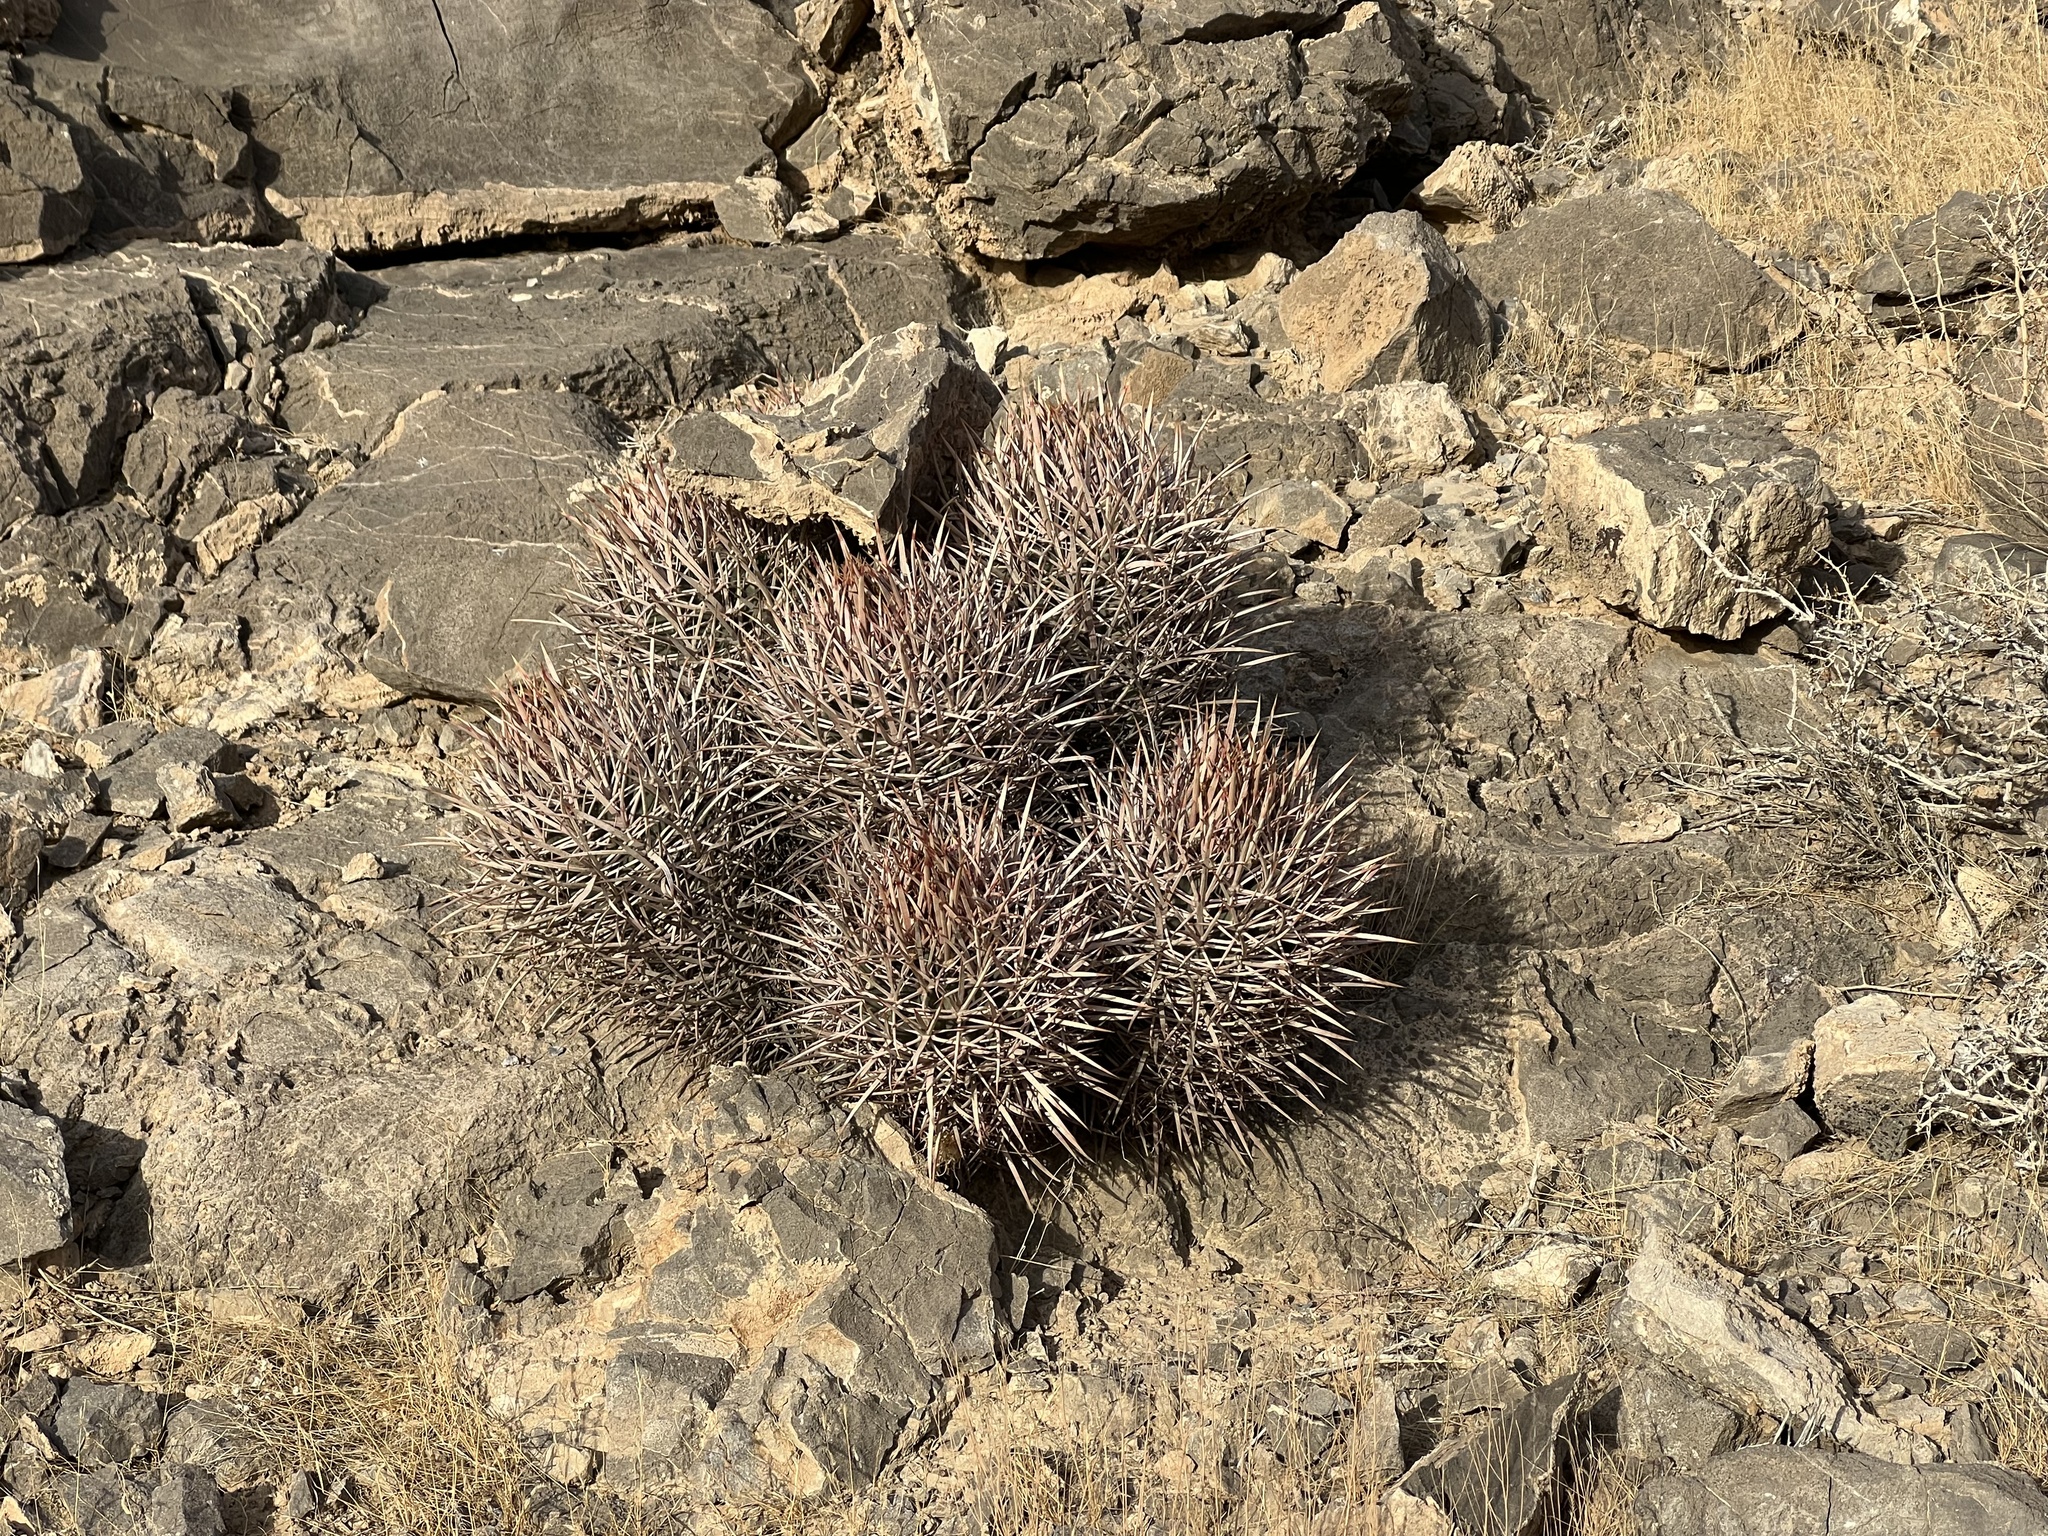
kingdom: Plantae
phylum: Tracheophyta
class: Magnoliopsida
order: Caryophyllales
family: Cactaceae
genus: Echinocactus
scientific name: Echinocactus polycephalus
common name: Cottontop cactus
